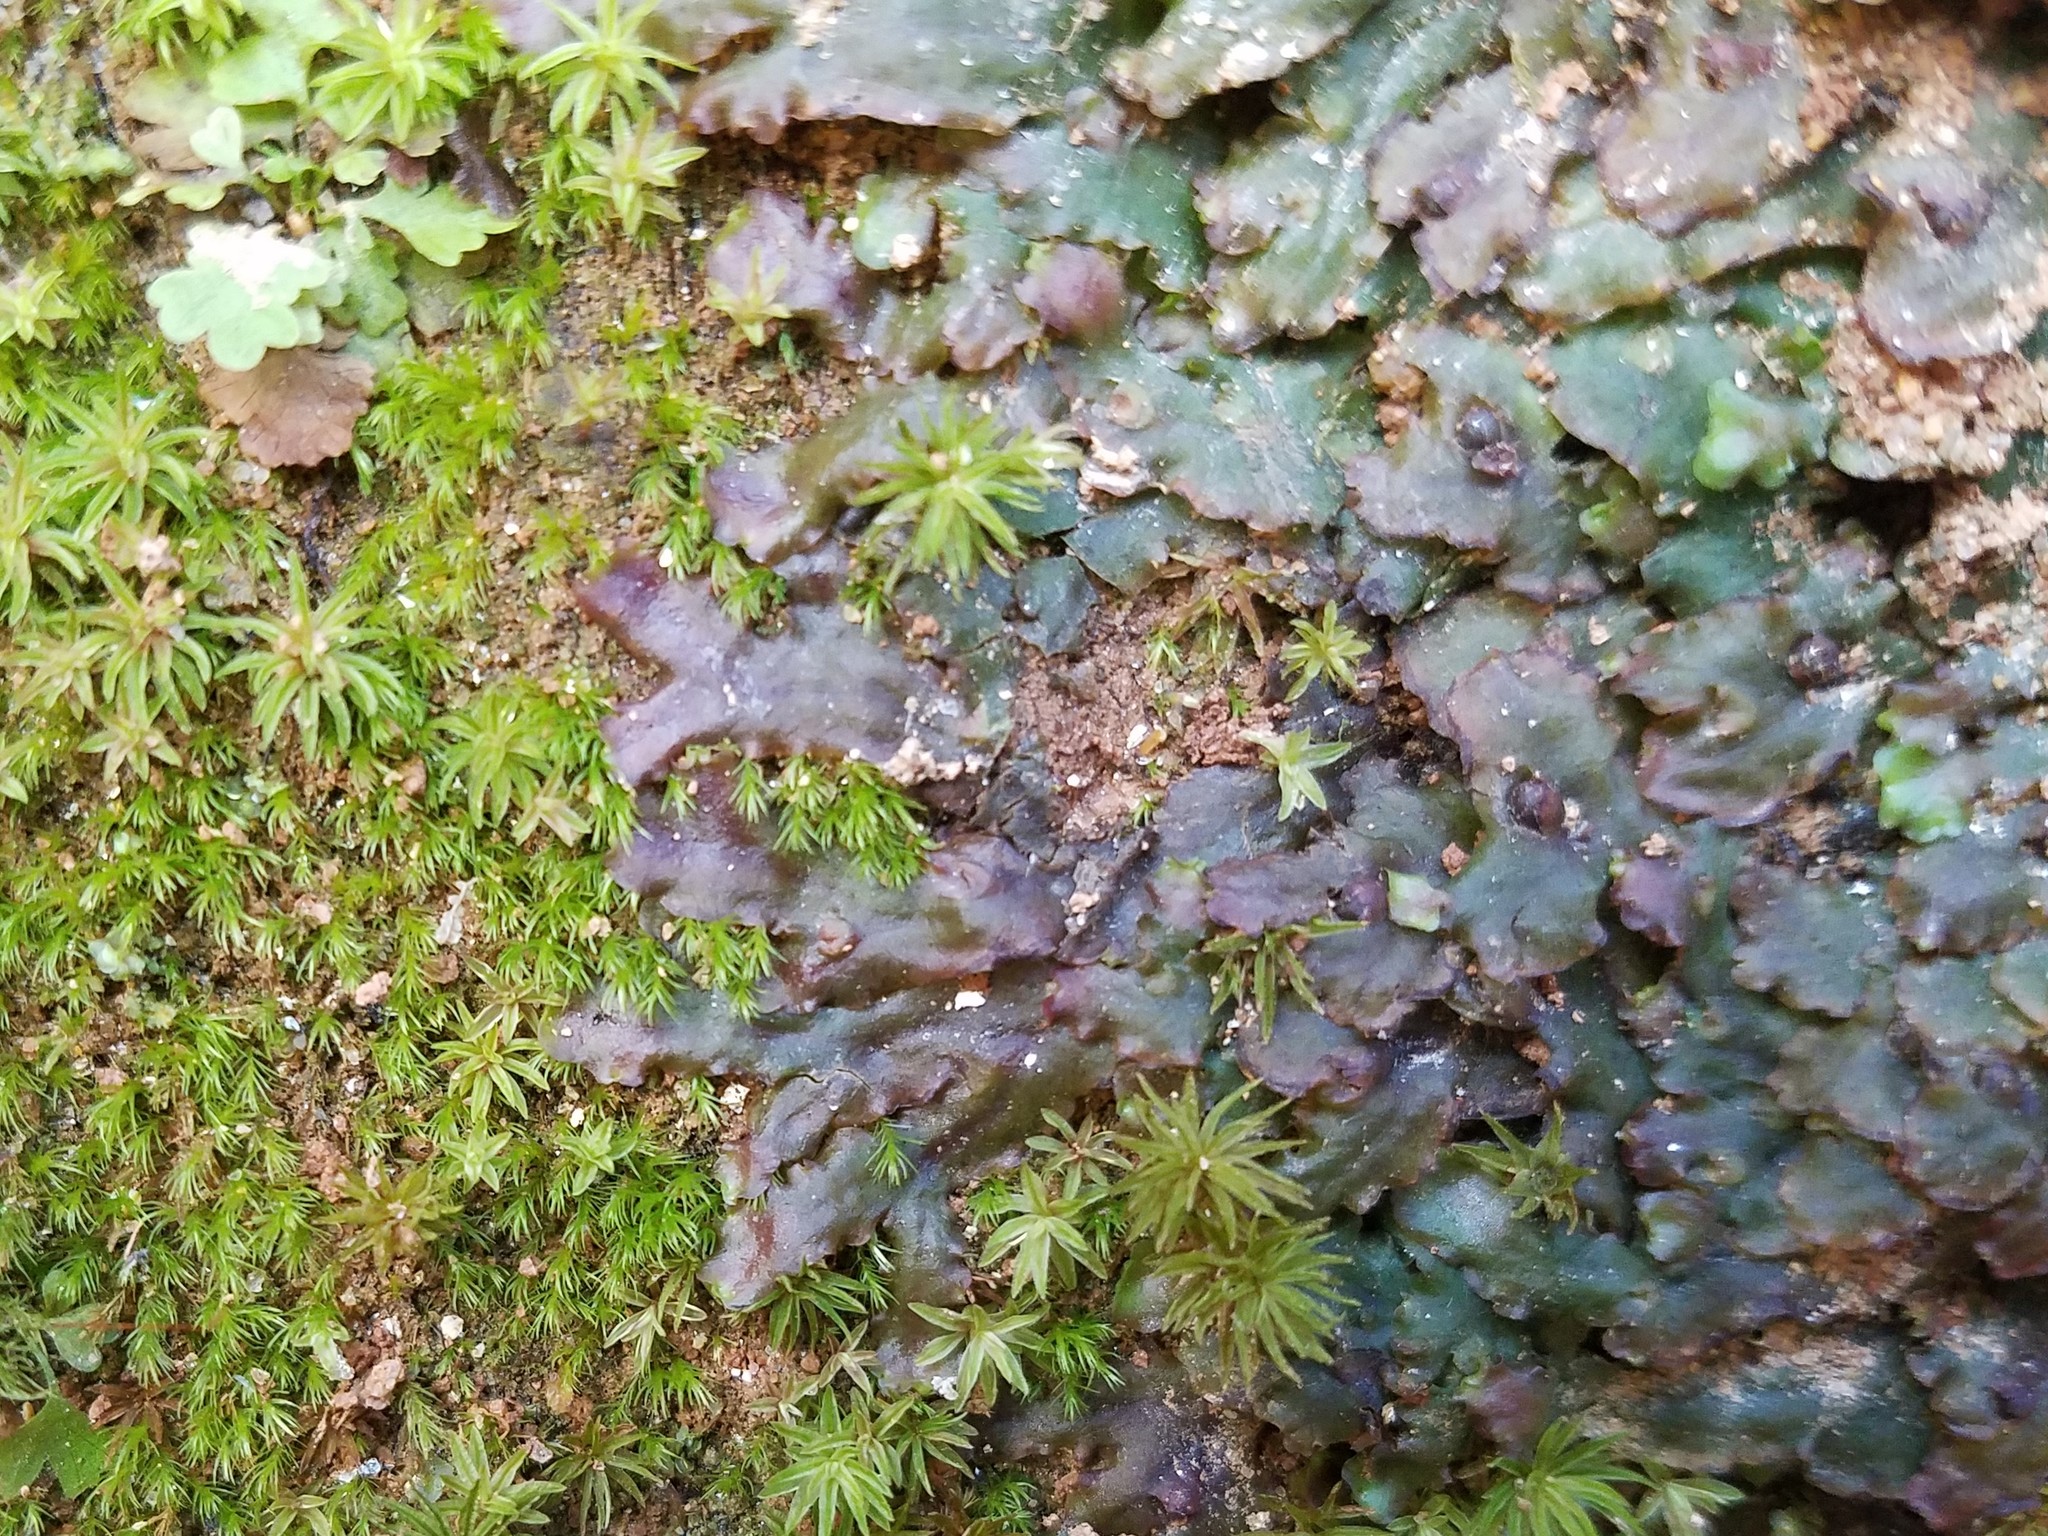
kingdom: Plantae
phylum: Marchantiophyta
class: Jungermanniopsida
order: Pelliales
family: Pelliaceae
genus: Pellia
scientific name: Pellia epiphylla
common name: Common pellia
